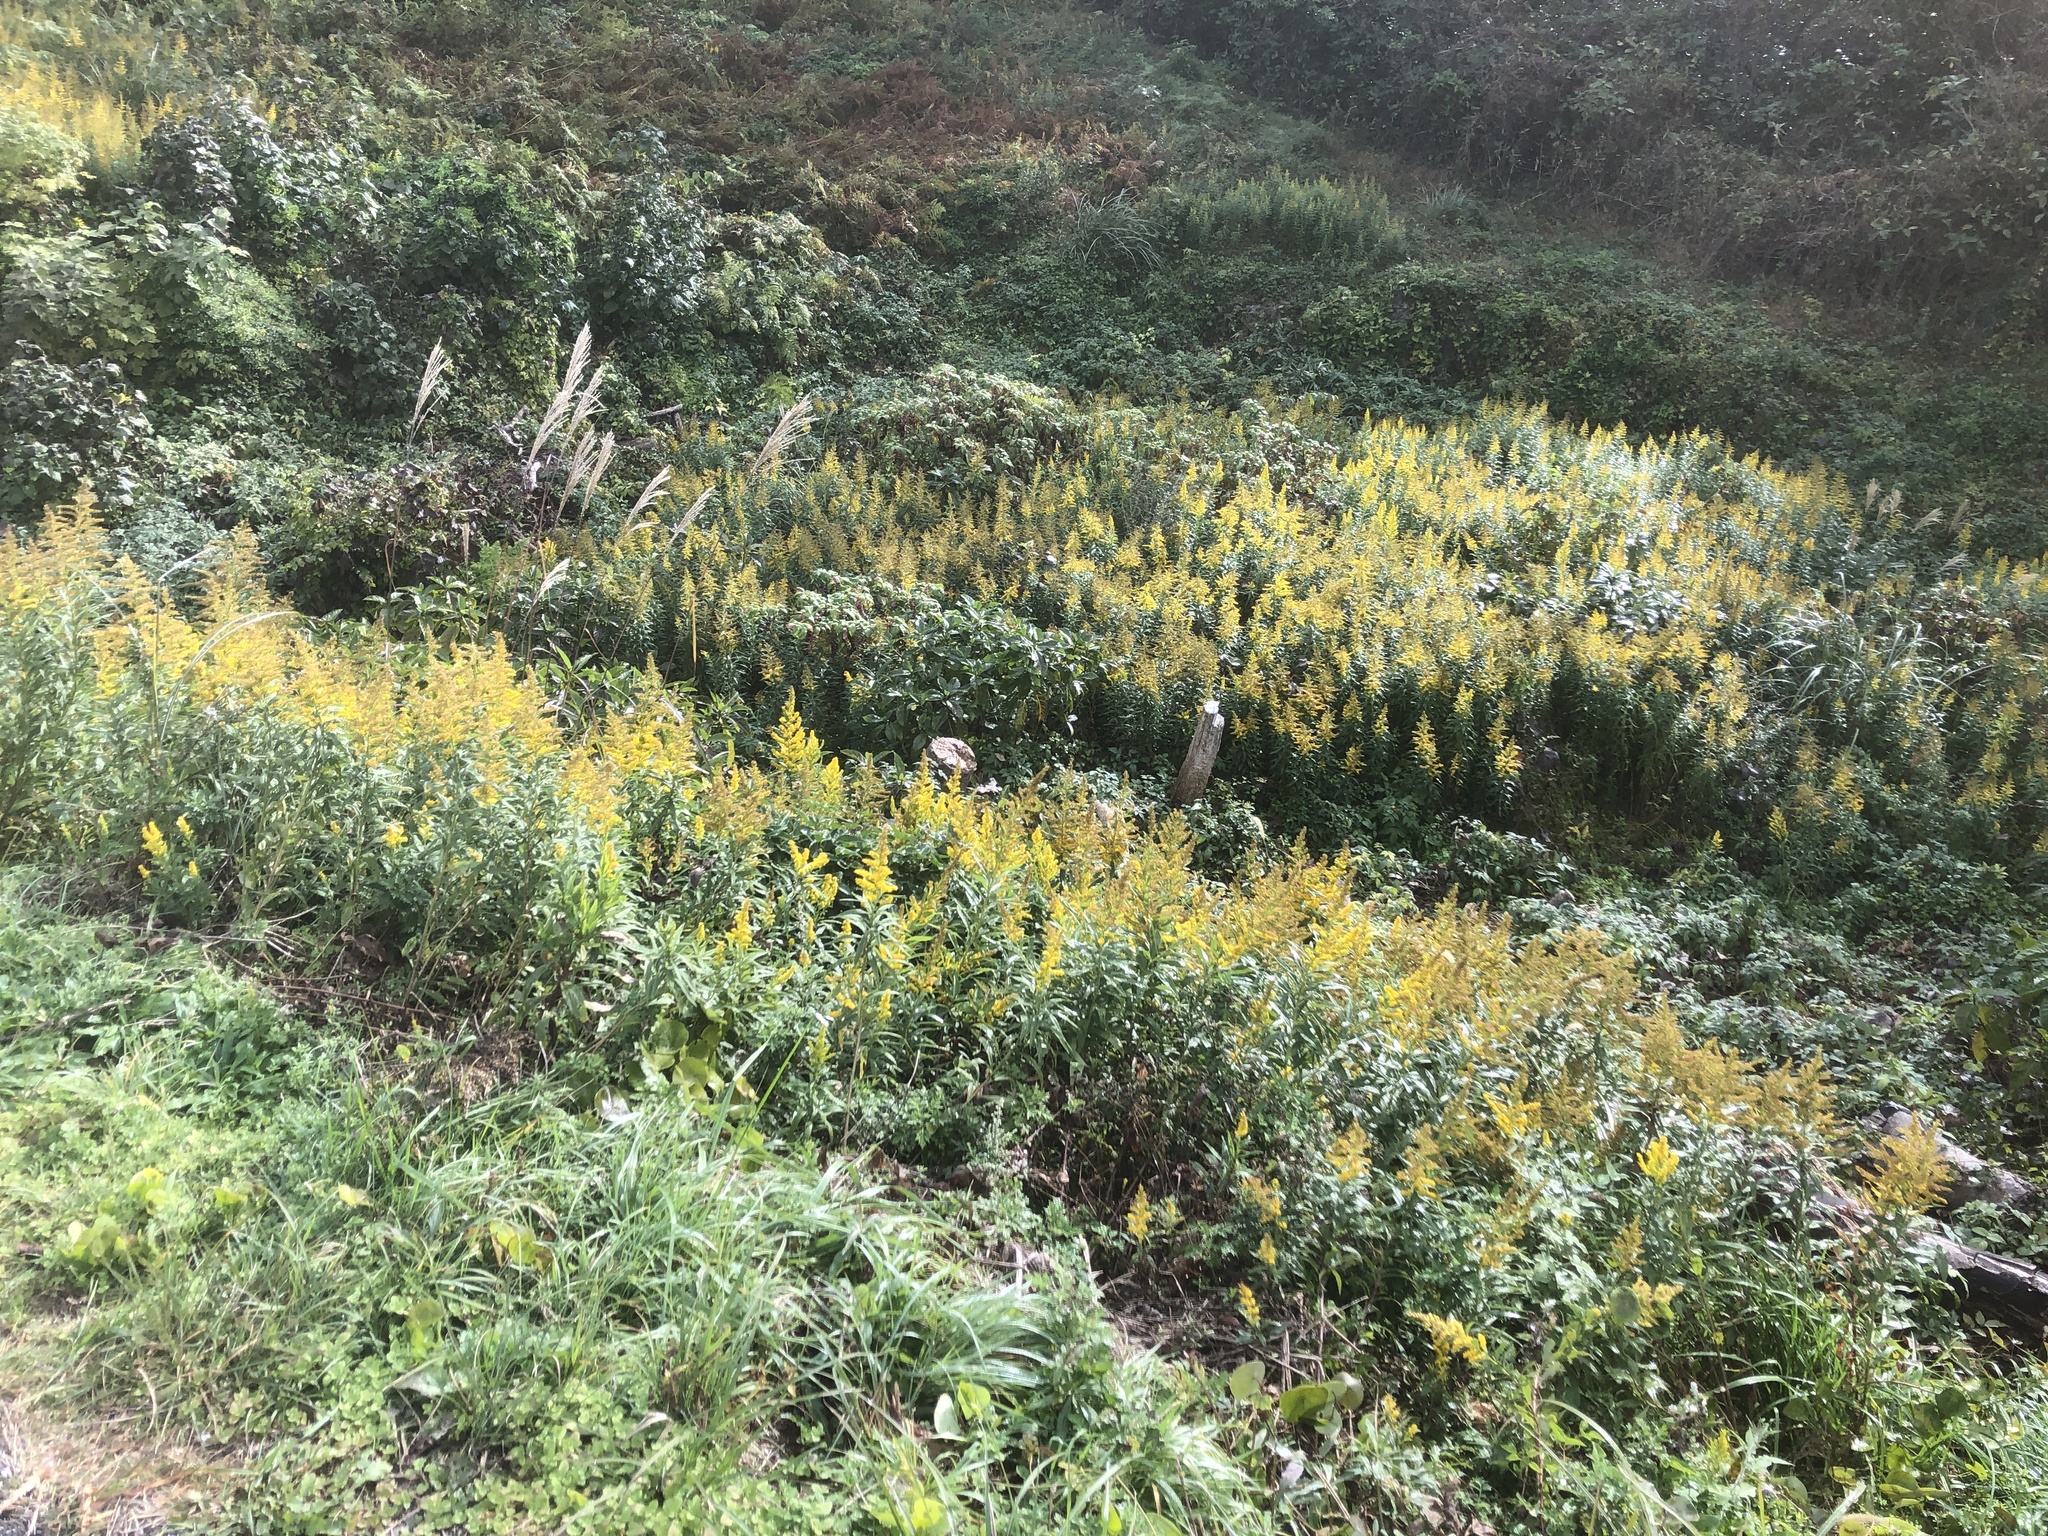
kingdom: Plantae
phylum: Tracheophyta
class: Magnoliopsida
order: Asterales
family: Asteraceae
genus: Solidago
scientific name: Solidago altissima
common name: Late goldenrod
